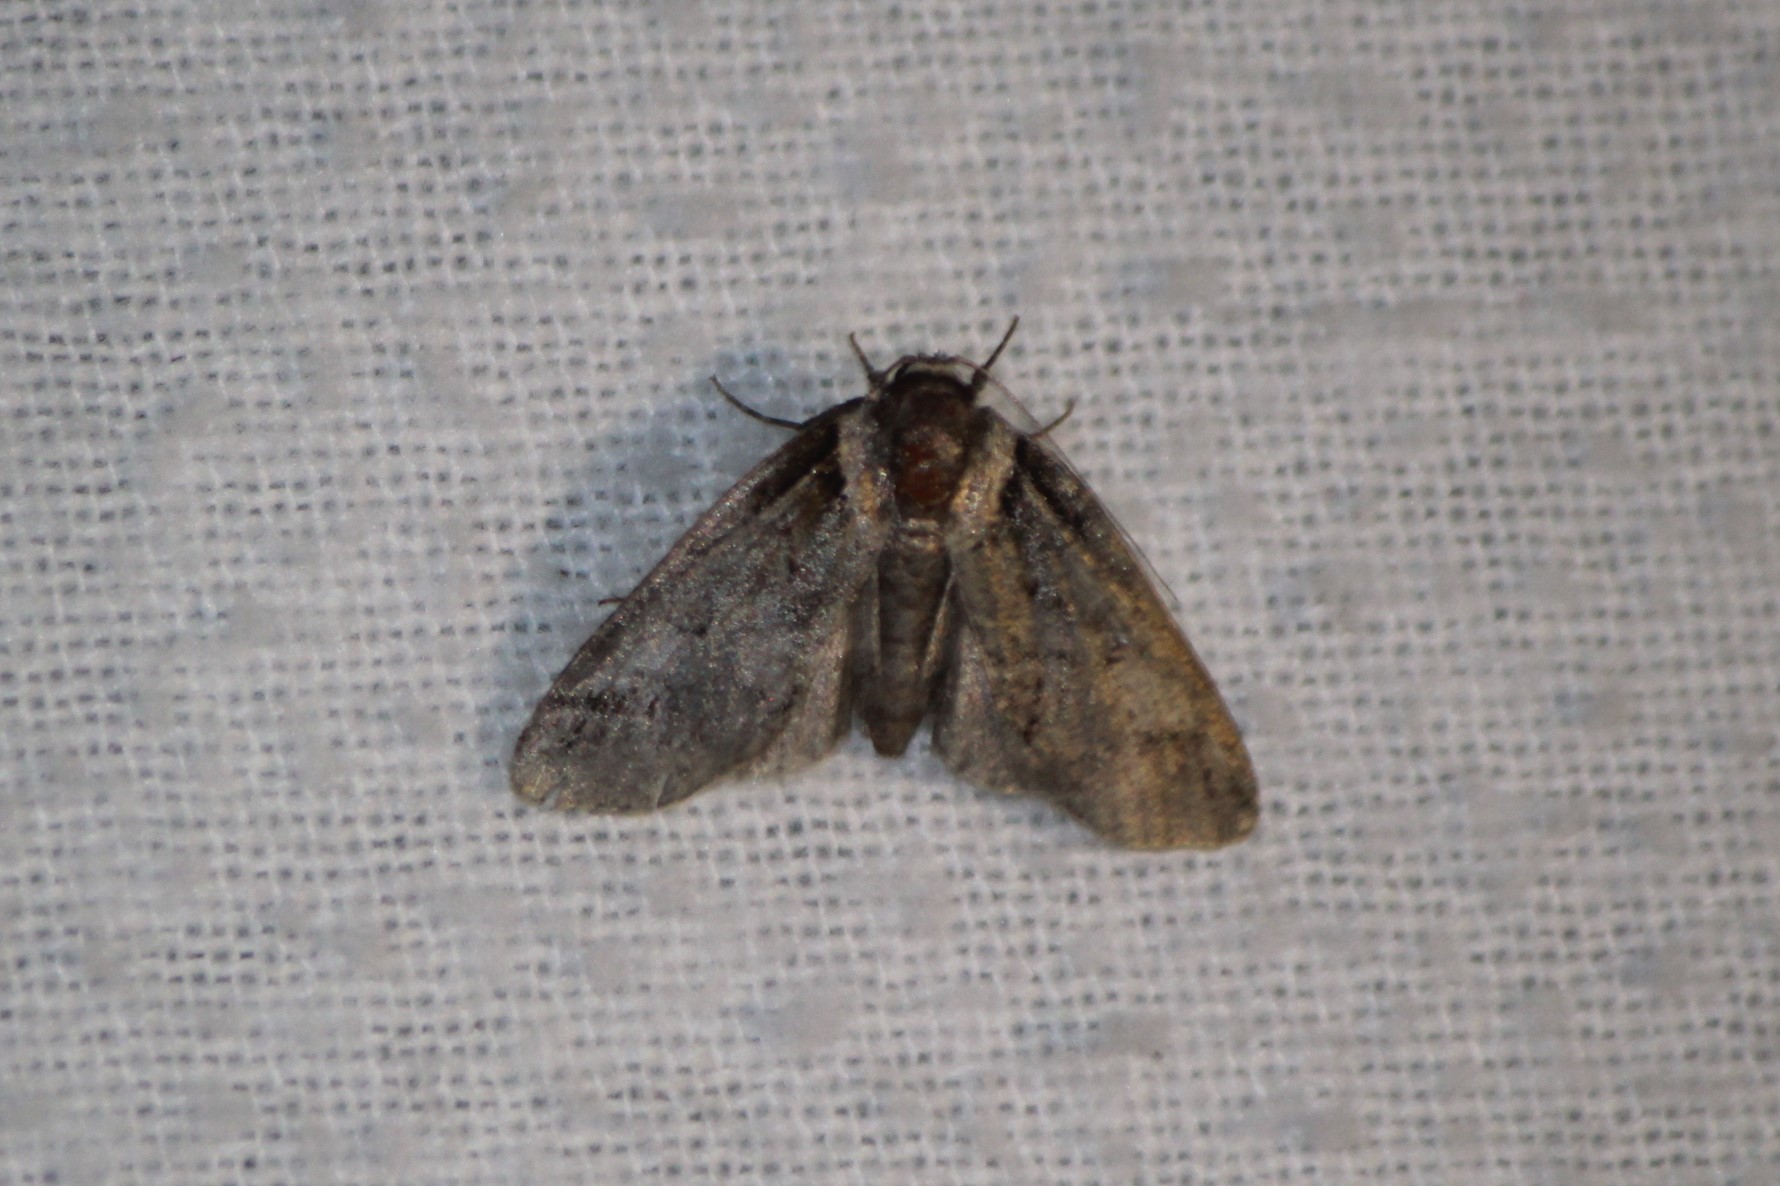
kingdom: Animalia
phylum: Arthropoda
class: Insecta
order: Lepidoptera
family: Nolidae
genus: Baileya
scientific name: Baileya australis
